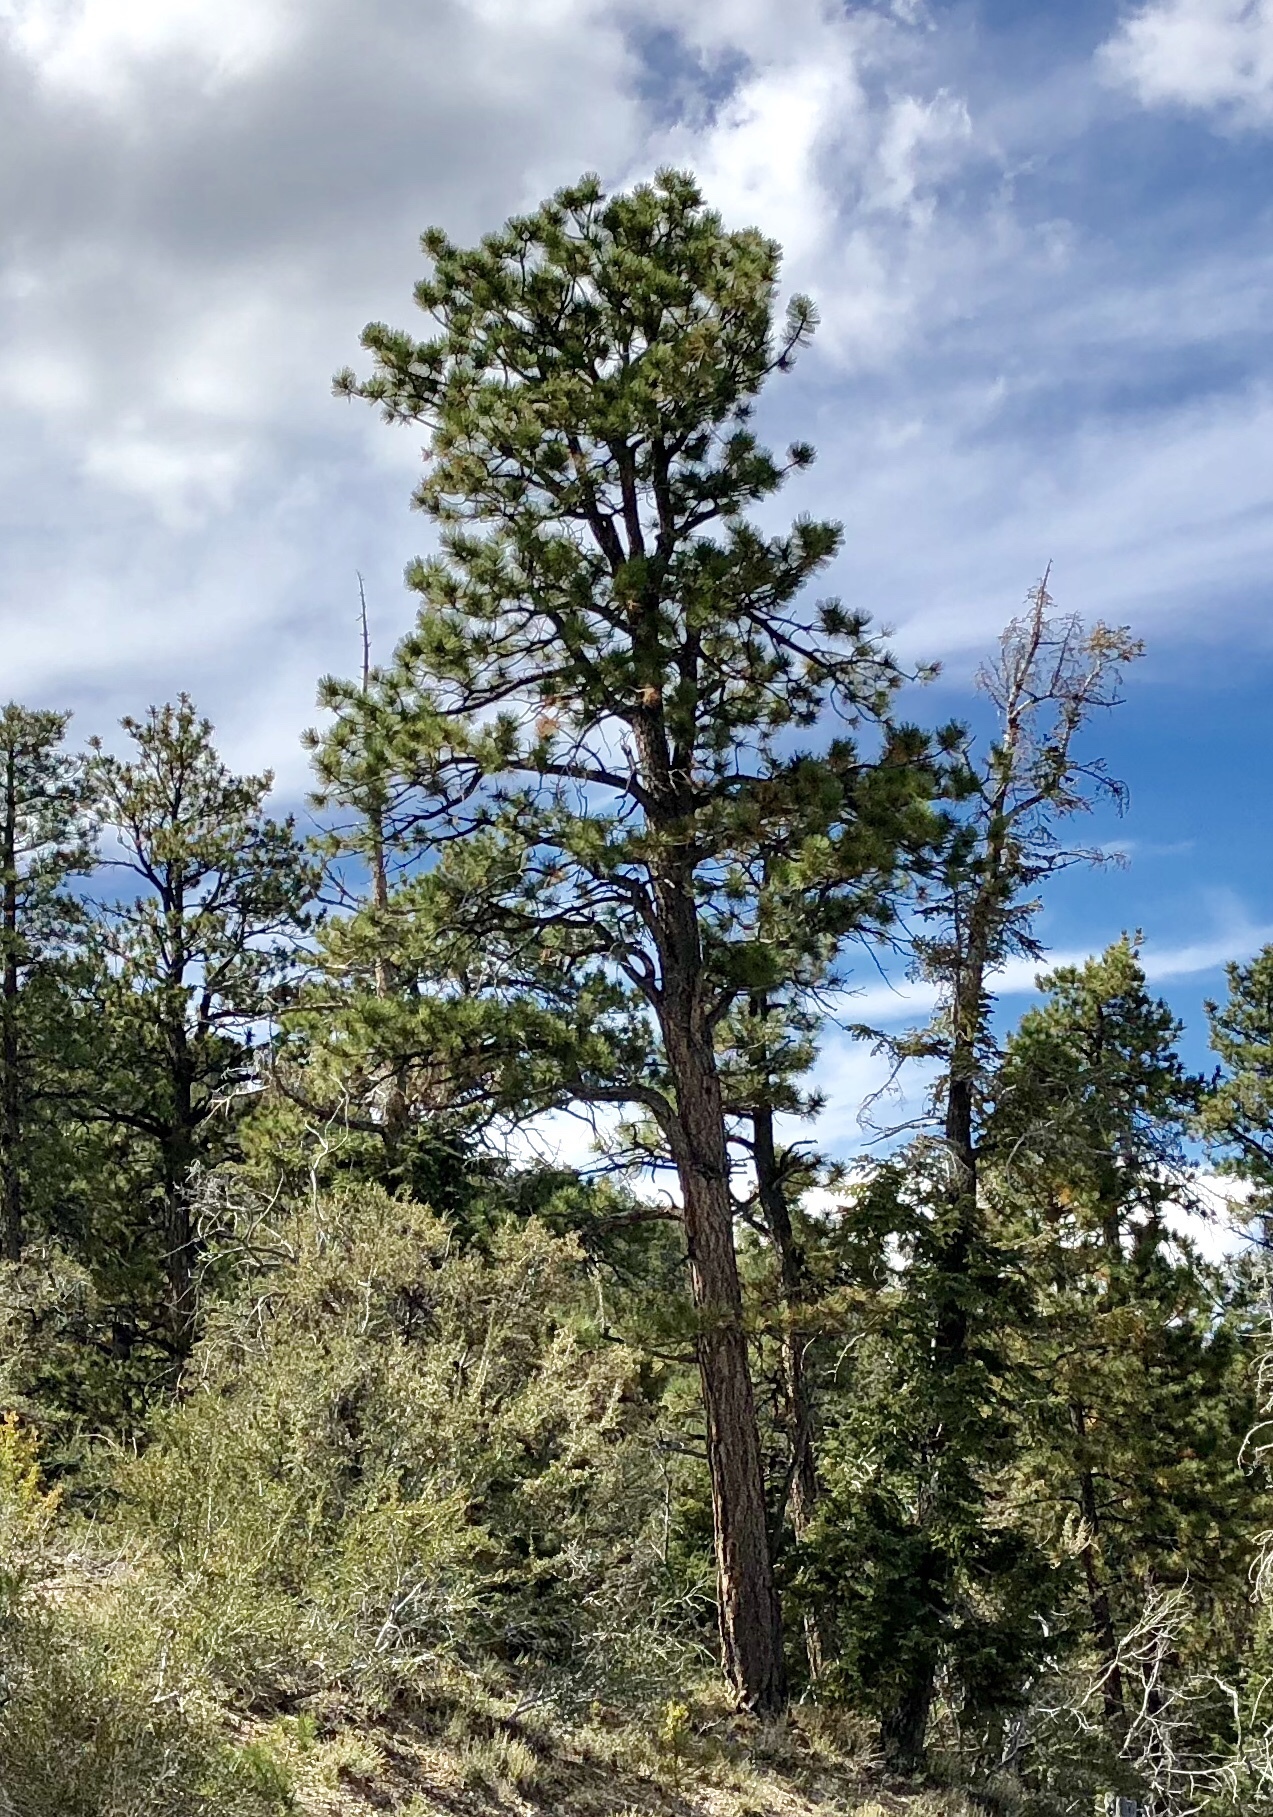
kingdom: Plantae
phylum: Tracheophyta
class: Pinopsida
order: Pinales
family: Pinaceae
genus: Pinus
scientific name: Pinus ponderosa
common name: Western yellow-pine
